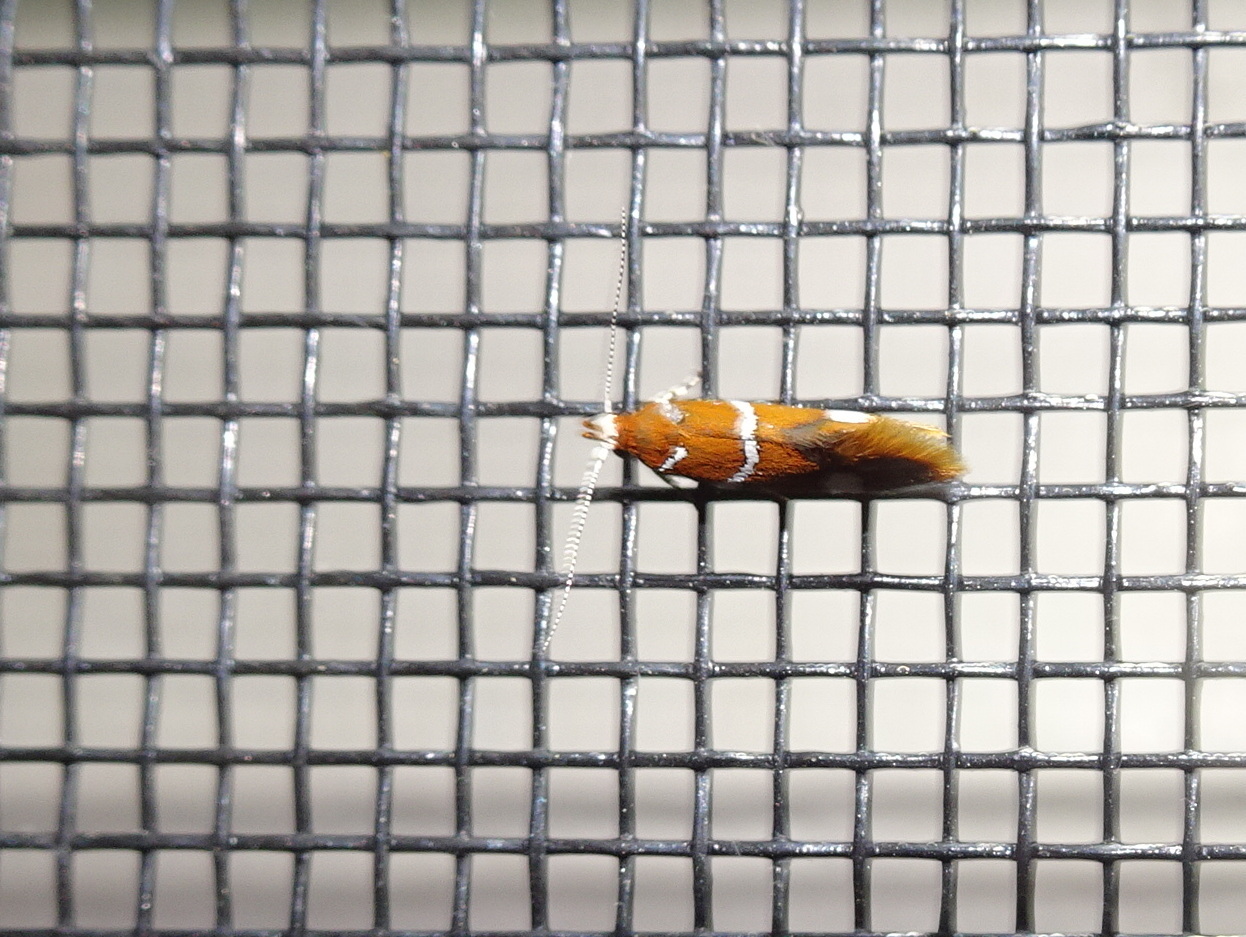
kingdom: Animalia
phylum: Arthropoda
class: Insecta
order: Lepidoptera
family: Oecophoridae
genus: Promalactis
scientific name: Promalactis suzukiella
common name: Moth
